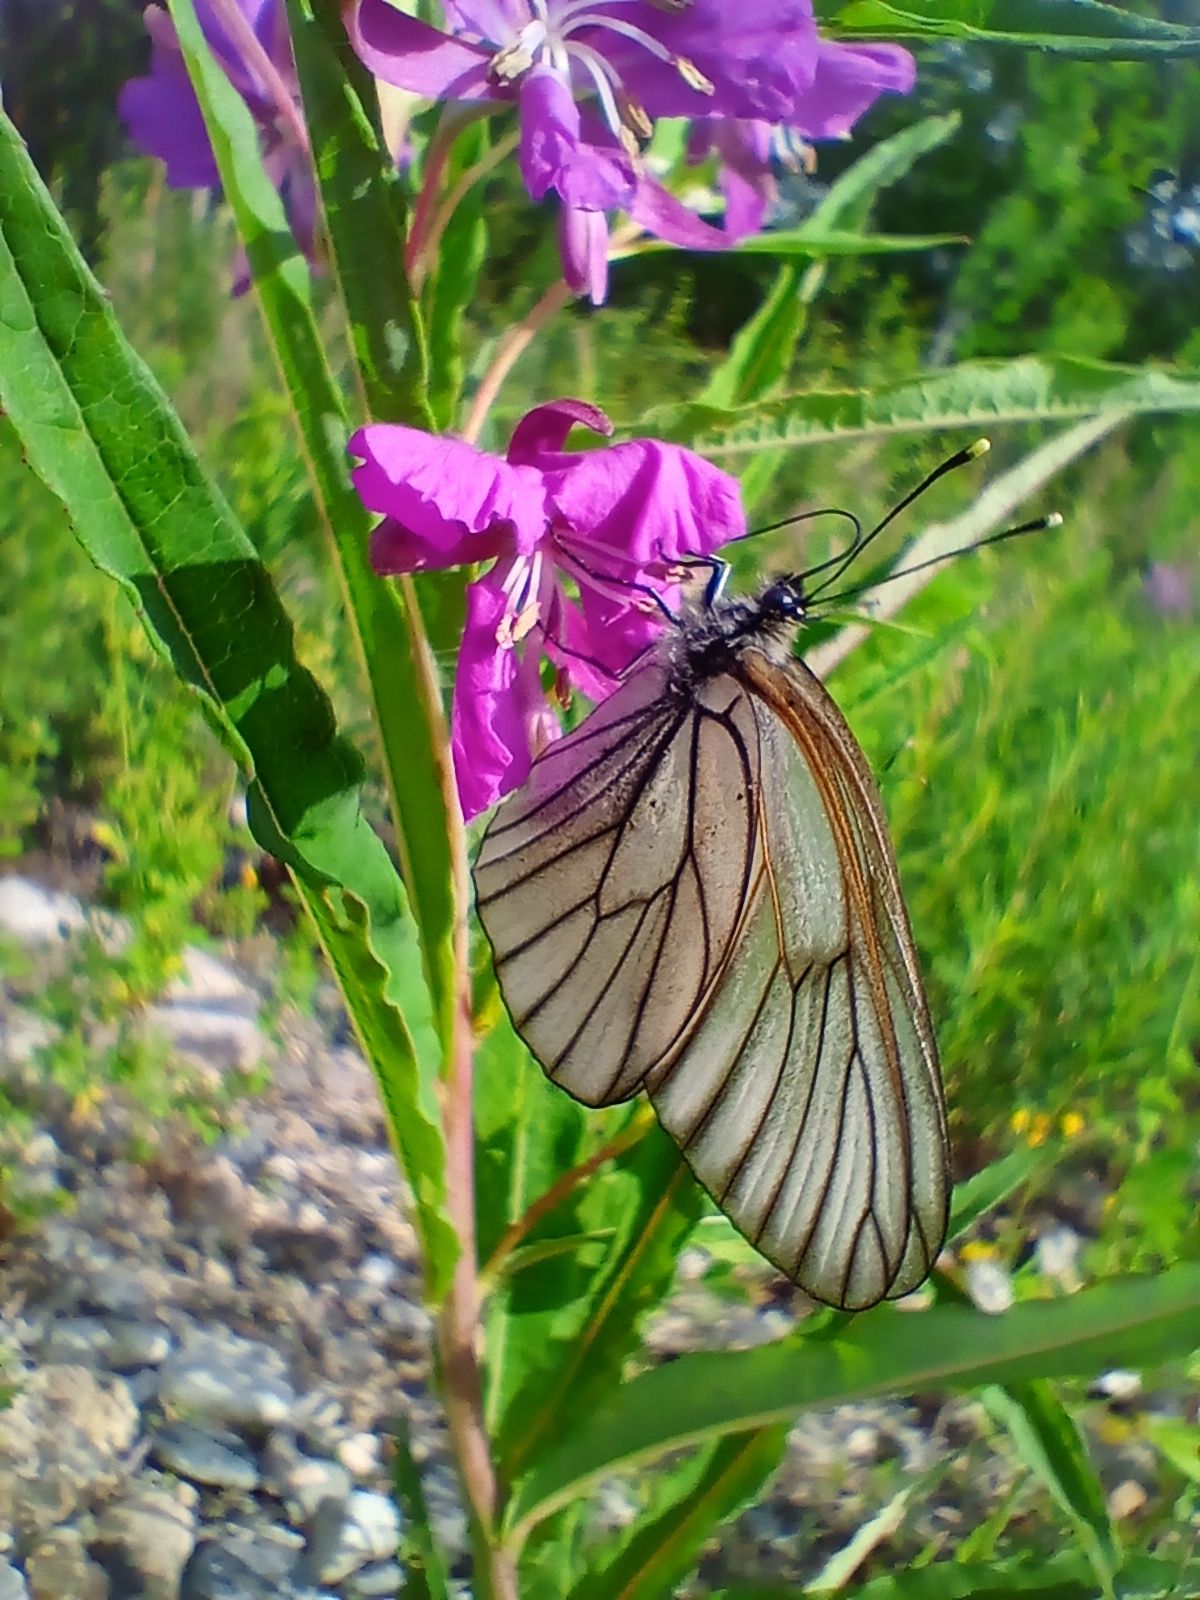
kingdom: Animalia
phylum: Arthropoda
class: Insecta
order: Lepidoptera
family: Pieridae
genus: Aporia
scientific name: Aporia crataegi
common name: Black-veined white
